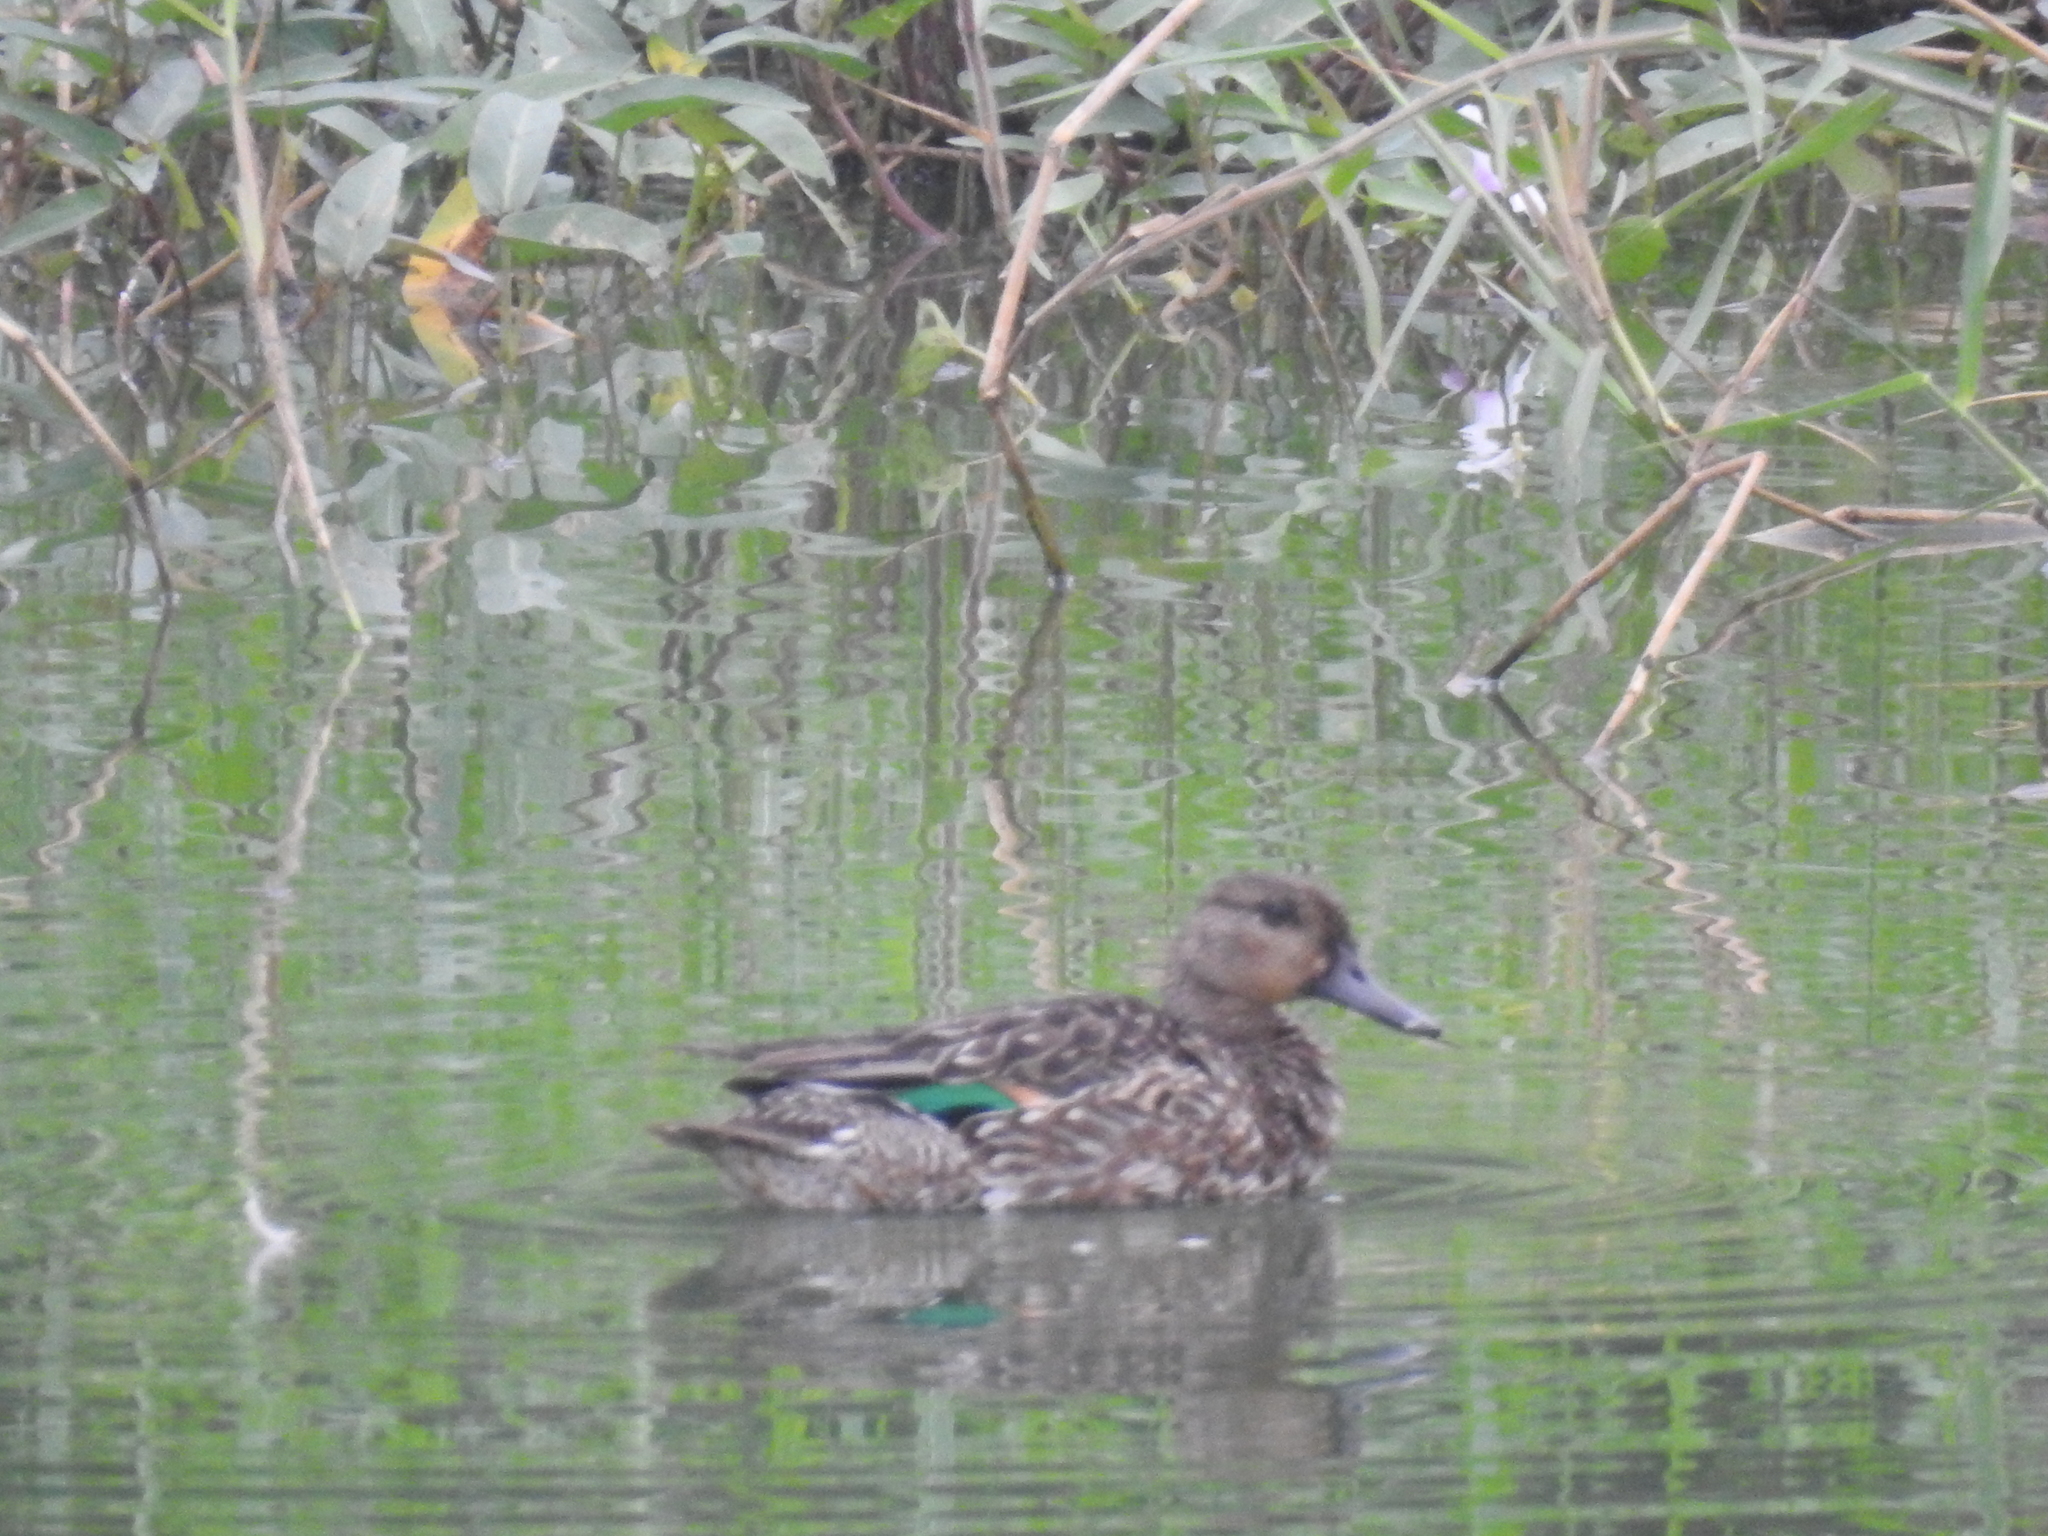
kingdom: Animalia
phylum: Chordata
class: Aves
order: Anseriformes
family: Anatidae
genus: Anas
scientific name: Anas crecca
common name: Eurasian teal
